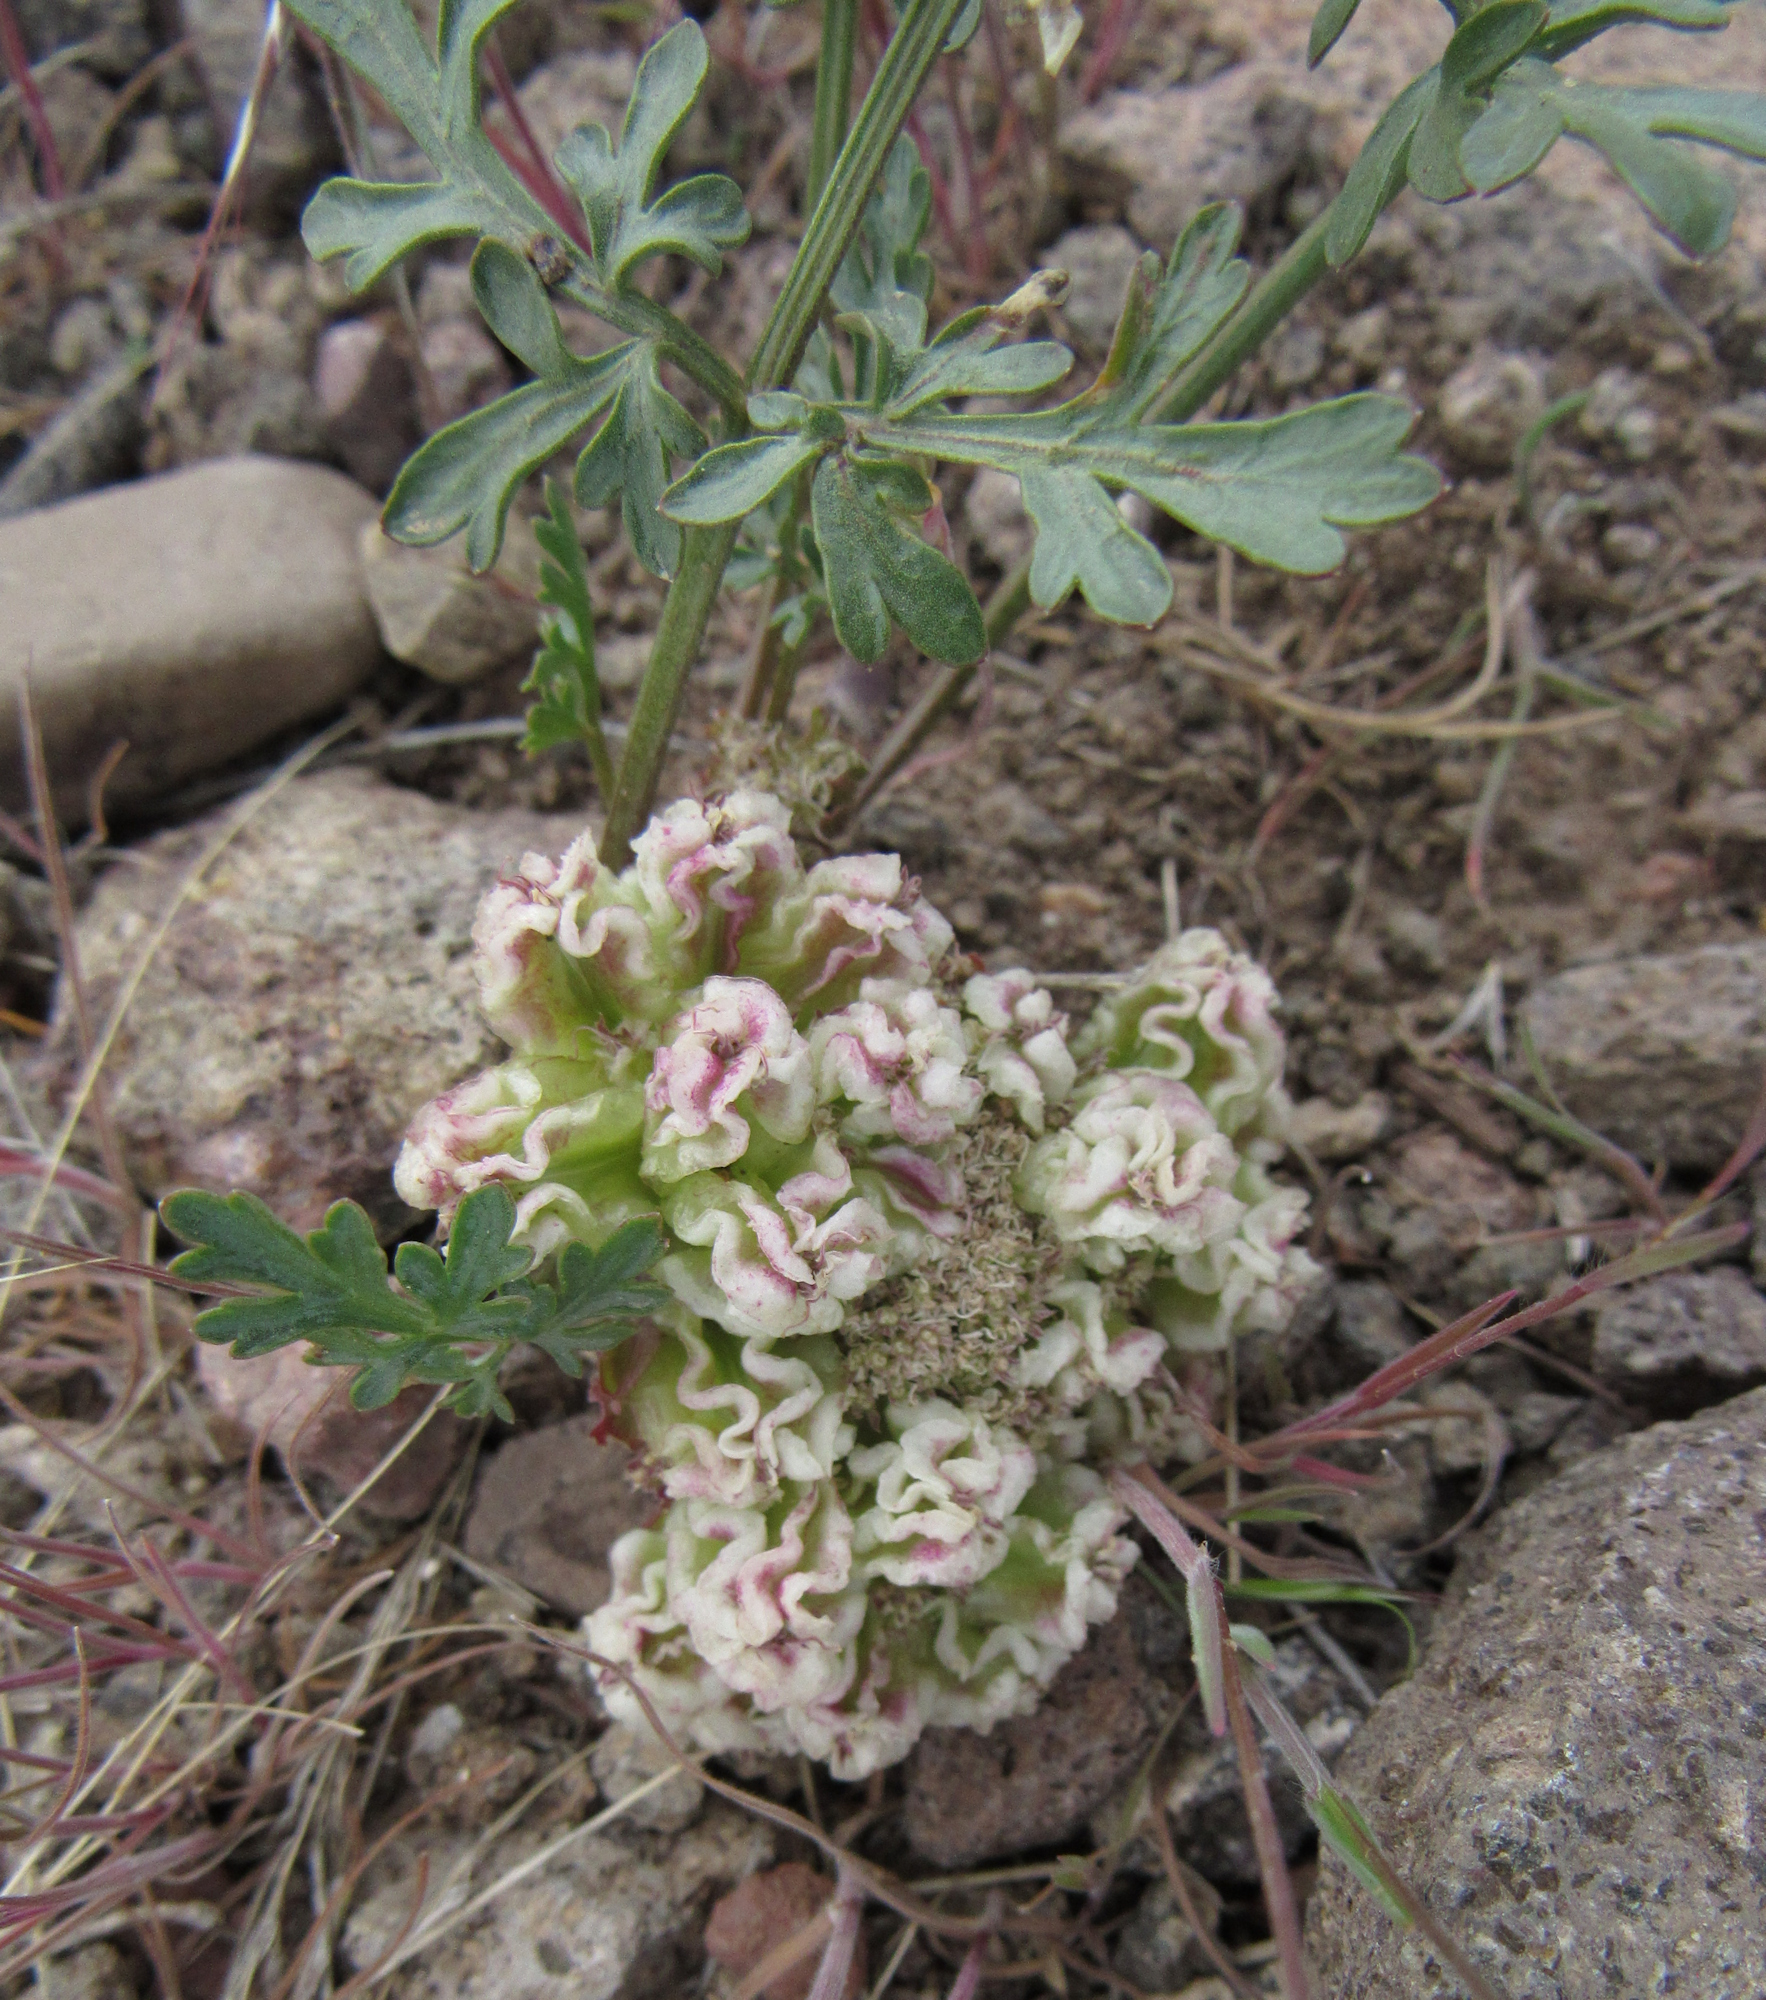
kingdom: Plantae
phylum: Tracheophyta
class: Magnoliopsida
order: Apiales
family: Apiaceae
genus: Cymopterus
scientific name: Cymopterus glomeratus
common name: Plains spring parsley
